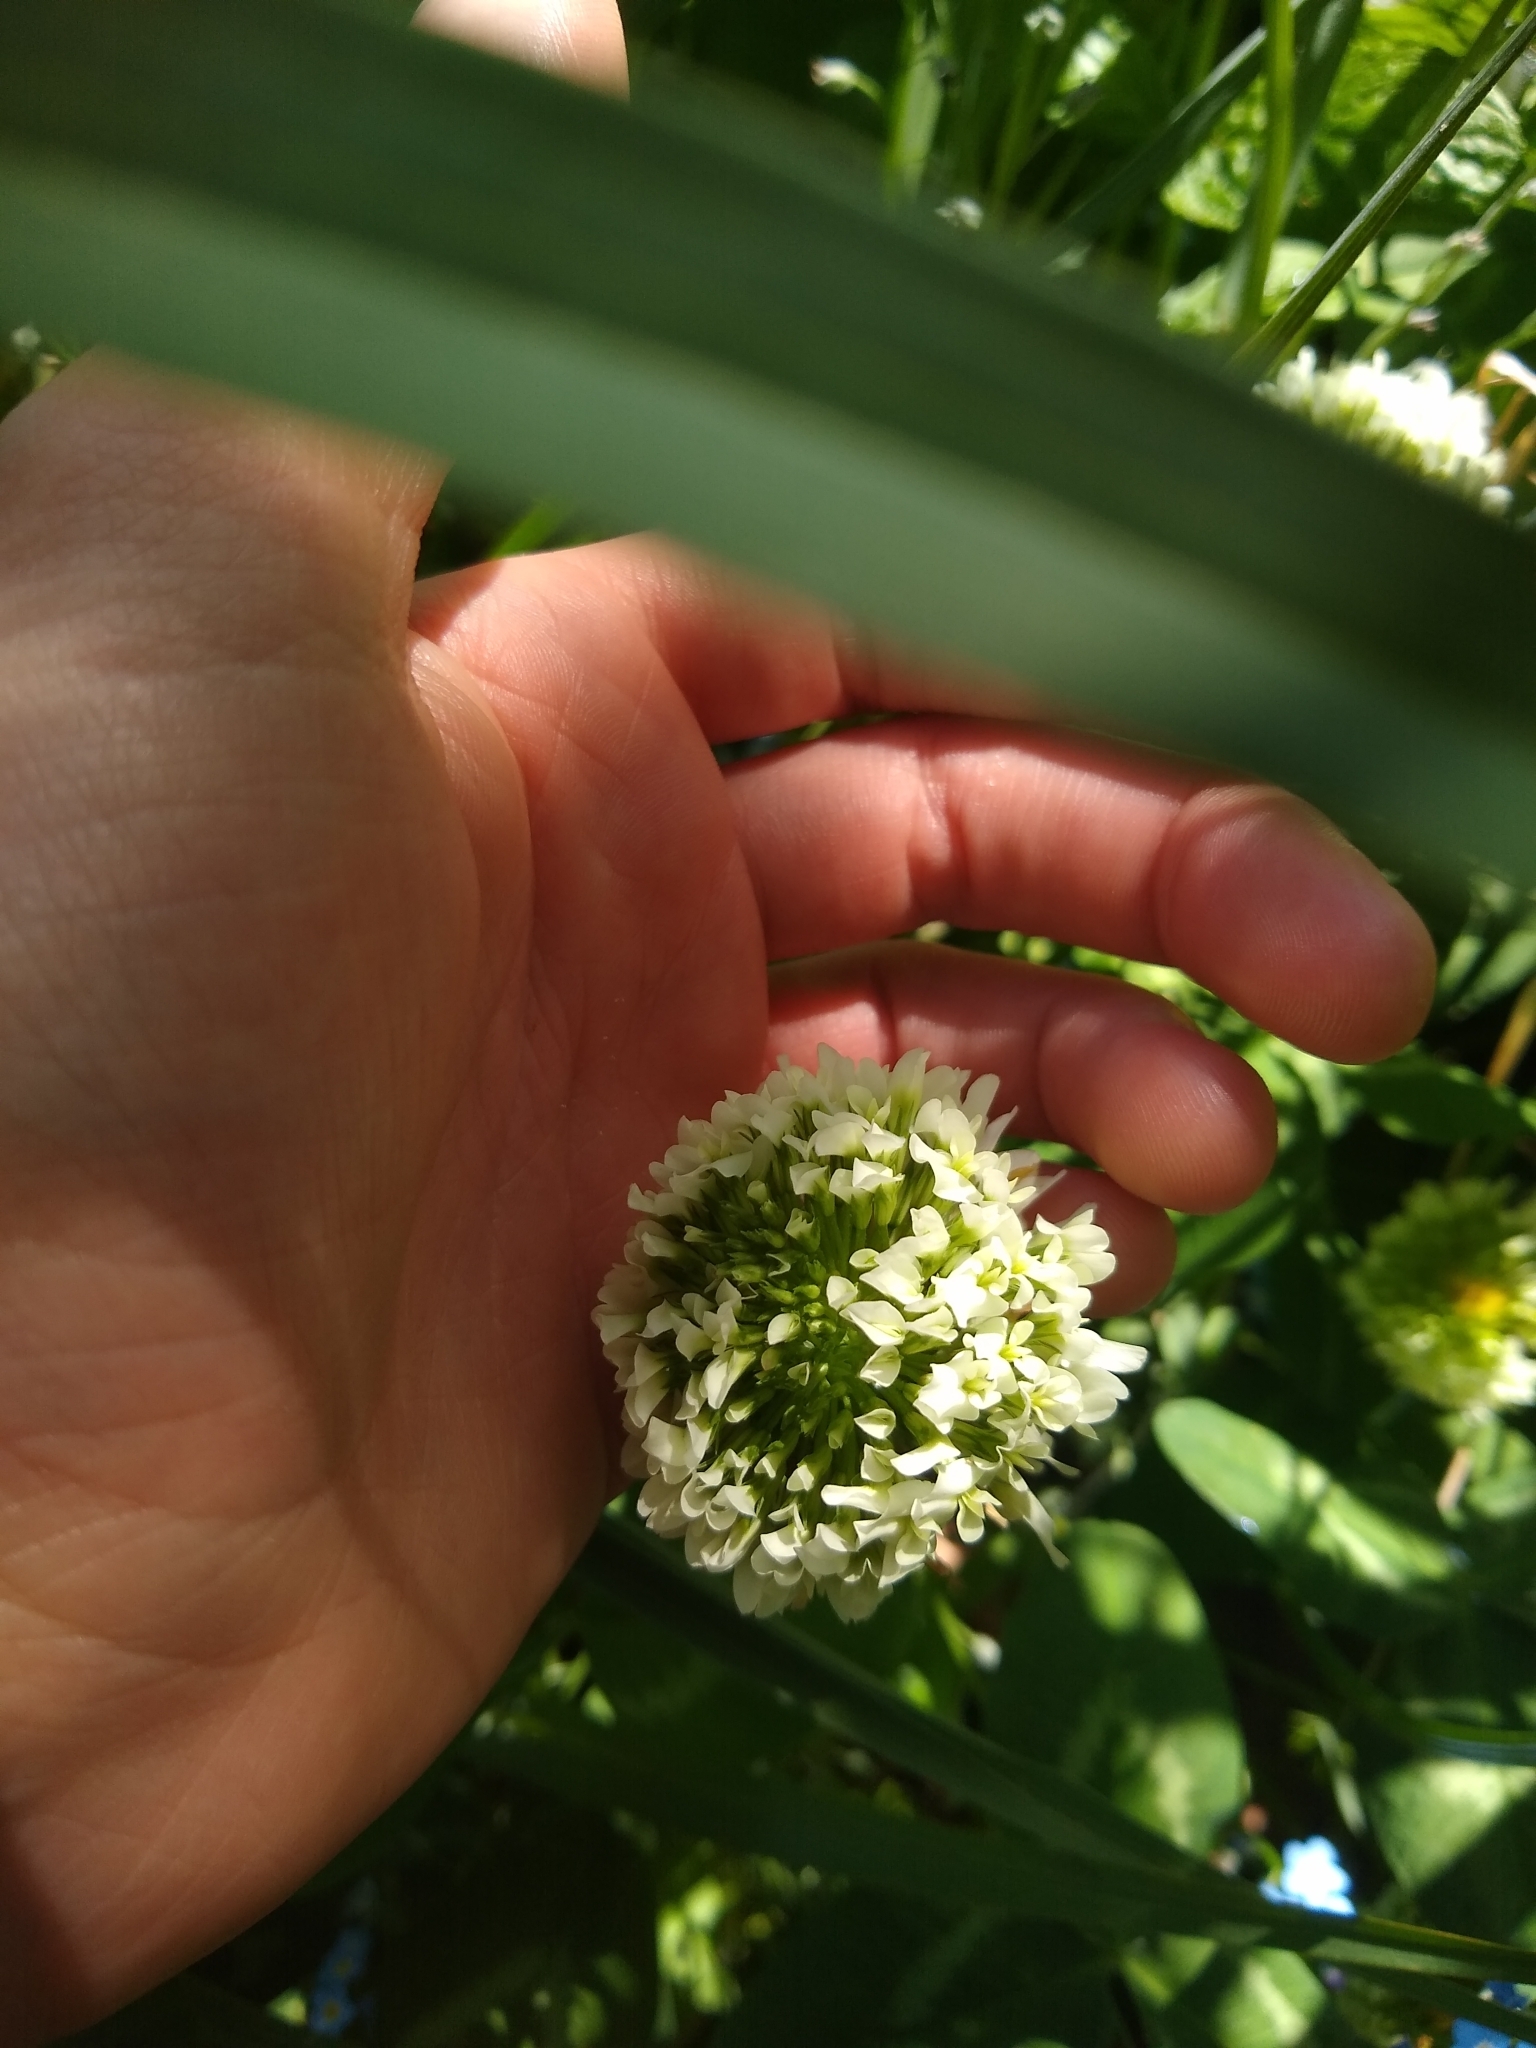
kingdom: Plantae
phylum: Tracheophyta
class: Magnoliopsida
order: Fabales
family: Fabaceae
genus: Trifolium
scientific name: Trifolium repens
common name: White clover
